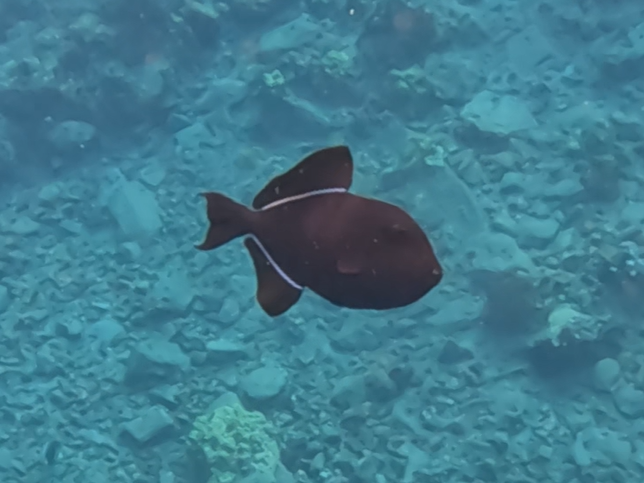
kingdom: Animalia
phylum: Chordata
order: Tetraodontiformes
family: Balistidae
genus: Melichthys
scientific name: Melichthys niger
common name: Black durgon
